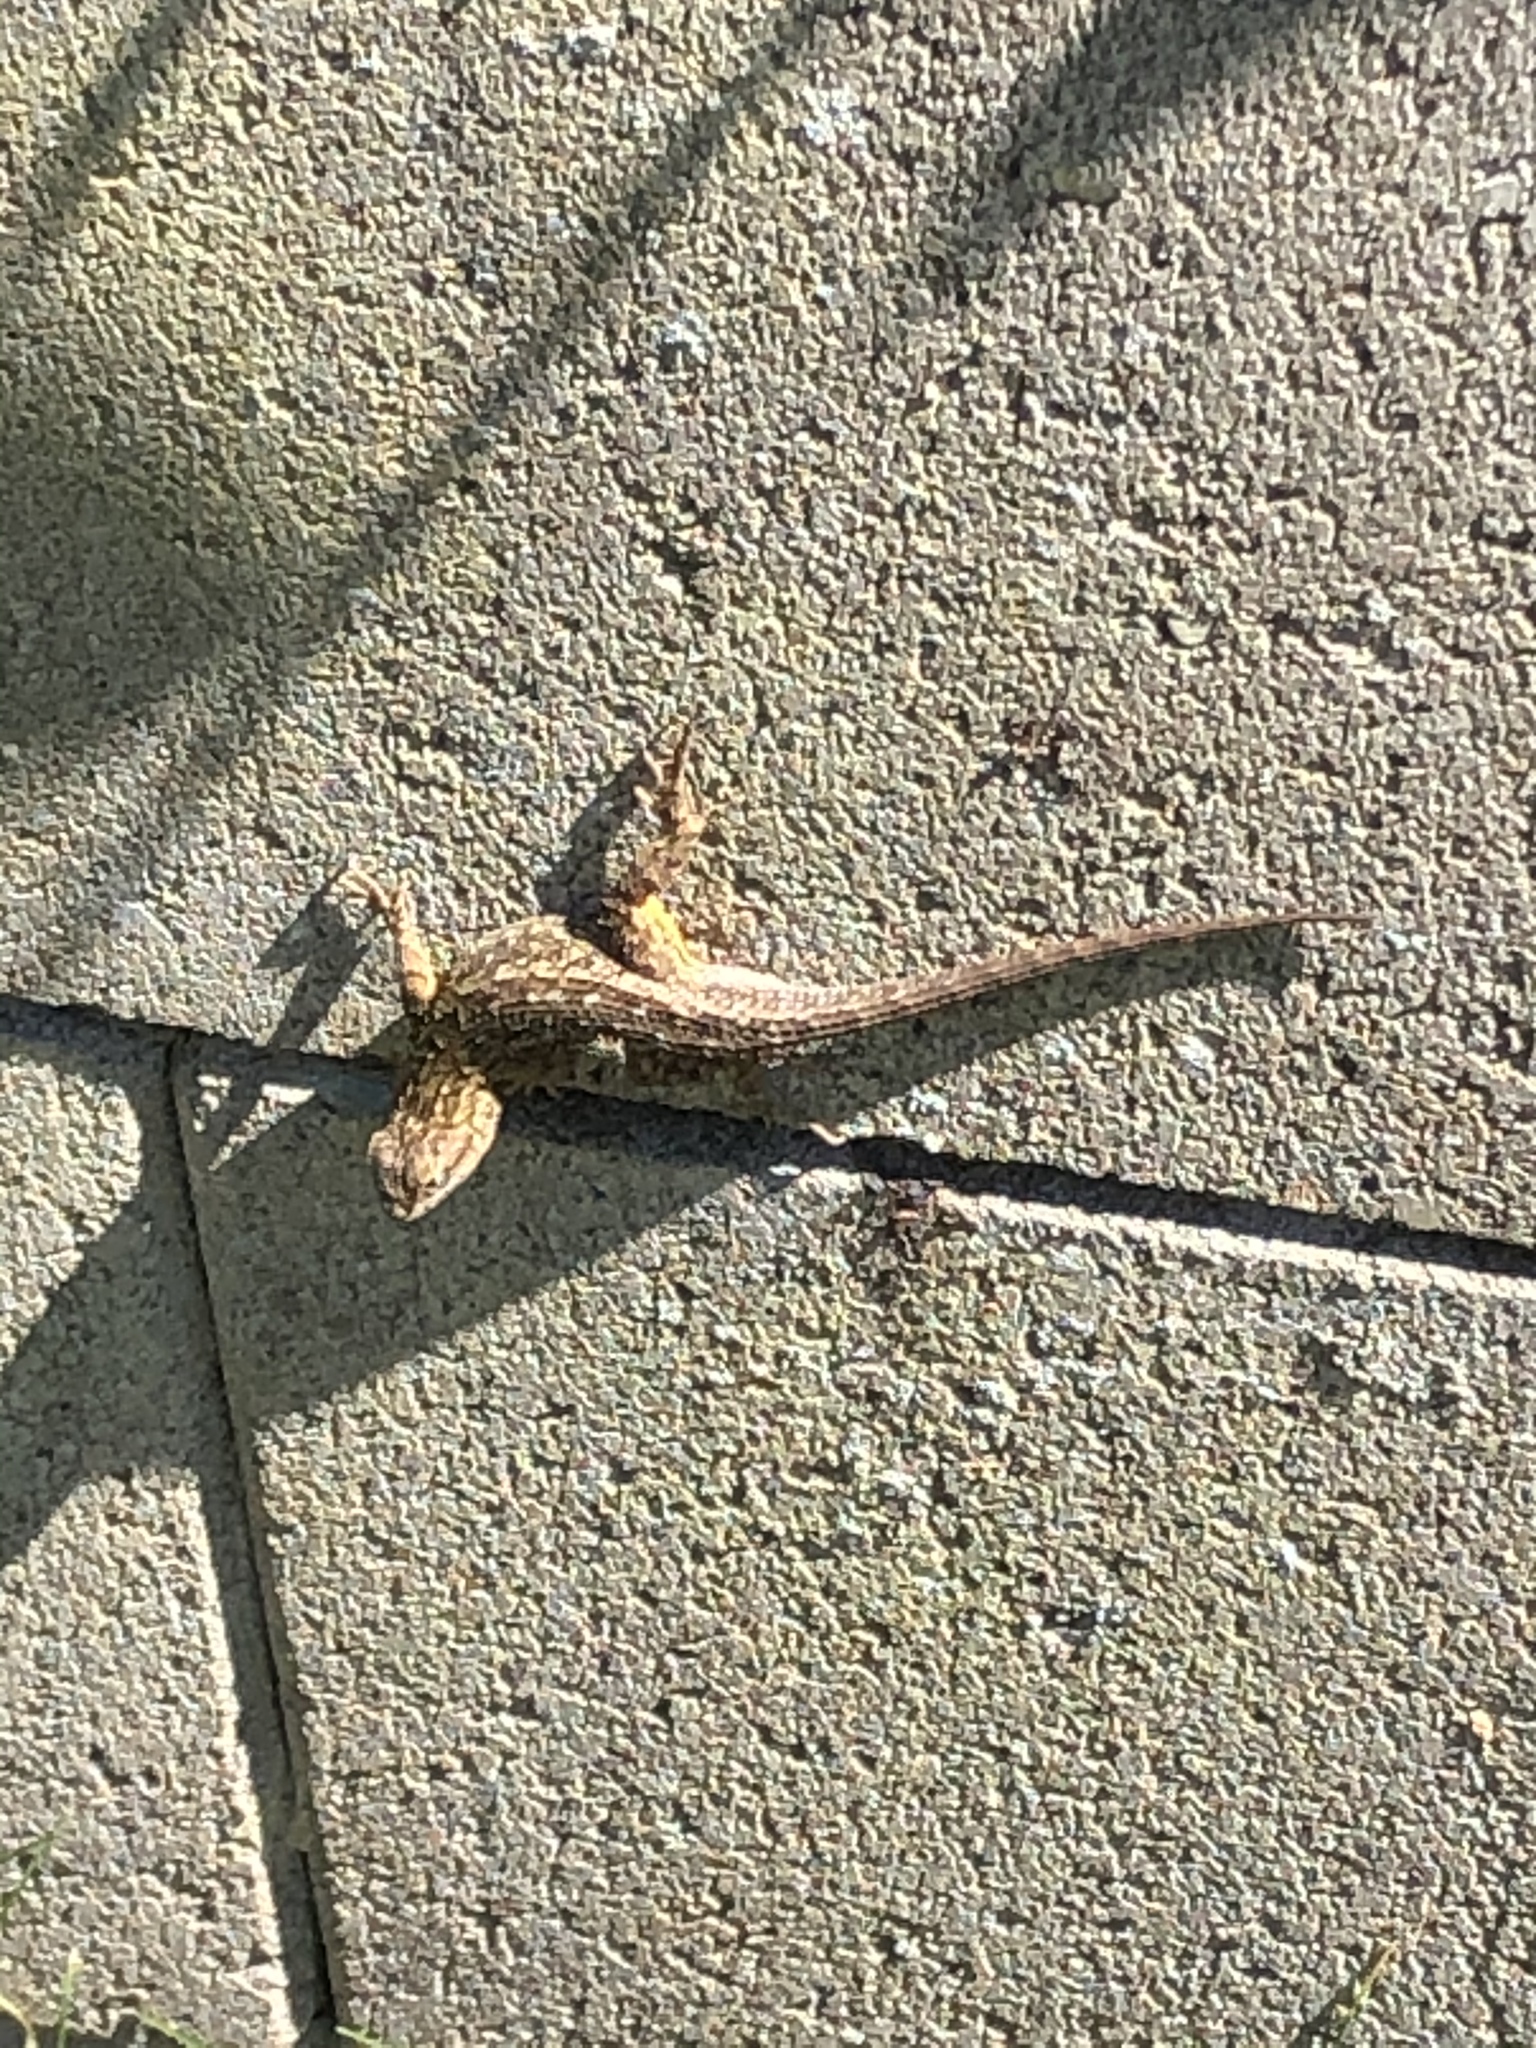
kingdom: Animalia
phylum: Chordata
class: Squamata
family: Phrynosomatidae
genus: Sceloporus
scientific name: Sceloporus occidentalis
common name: Western fence lizard
